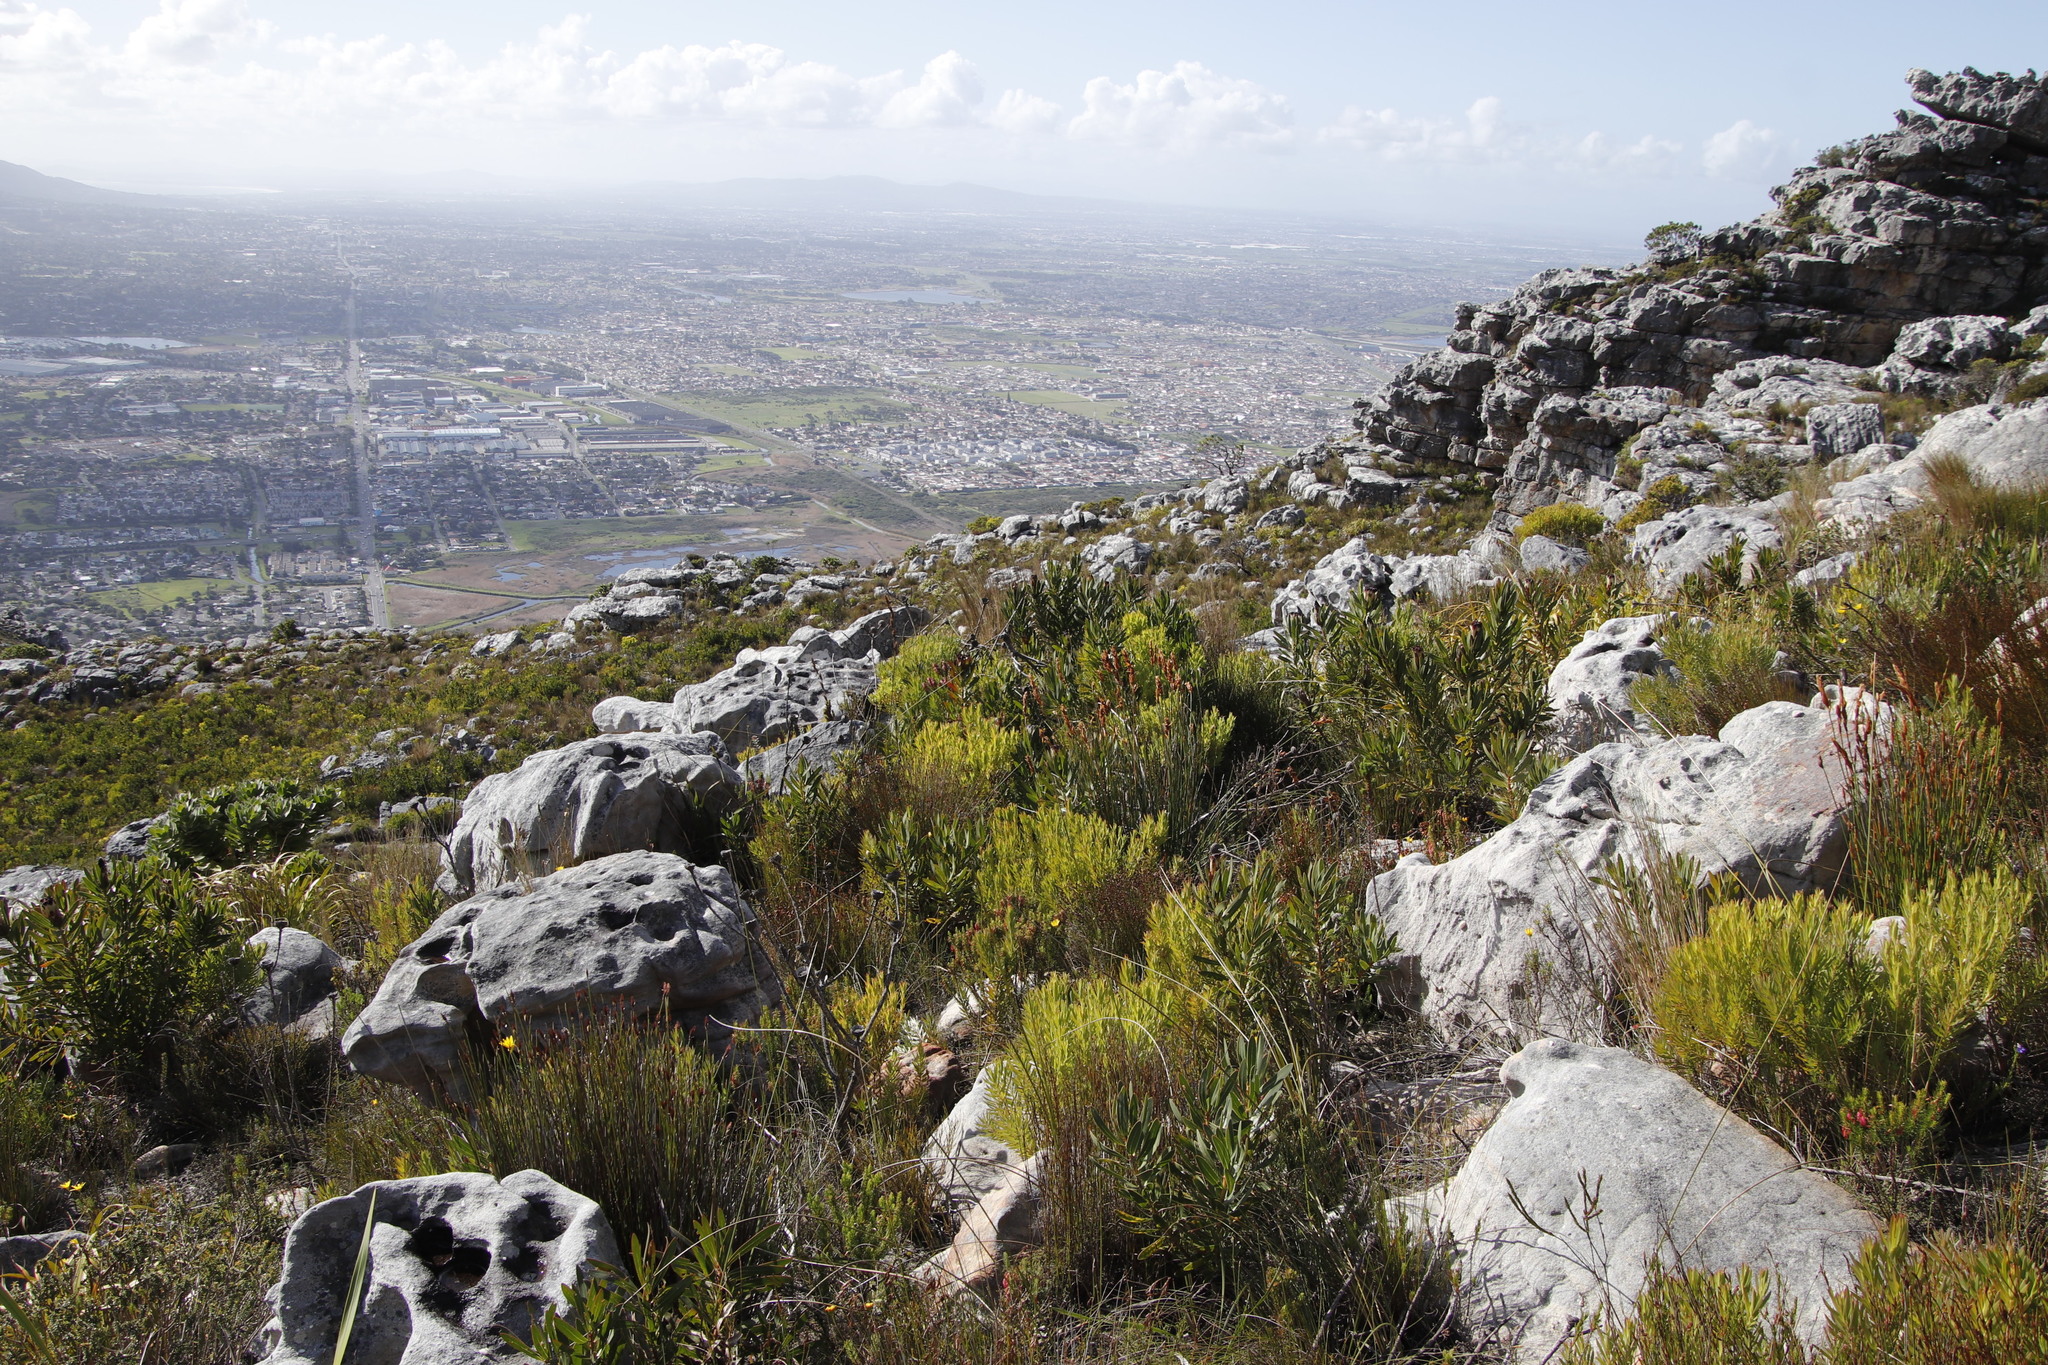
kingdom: Plantae
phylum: Tracheophyta
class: Magnoliopsida
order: Proteales
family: Proteaceae
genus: Leucadendron
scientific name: Leucadendron xanthoconus
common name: Sickle-leaf conebush
